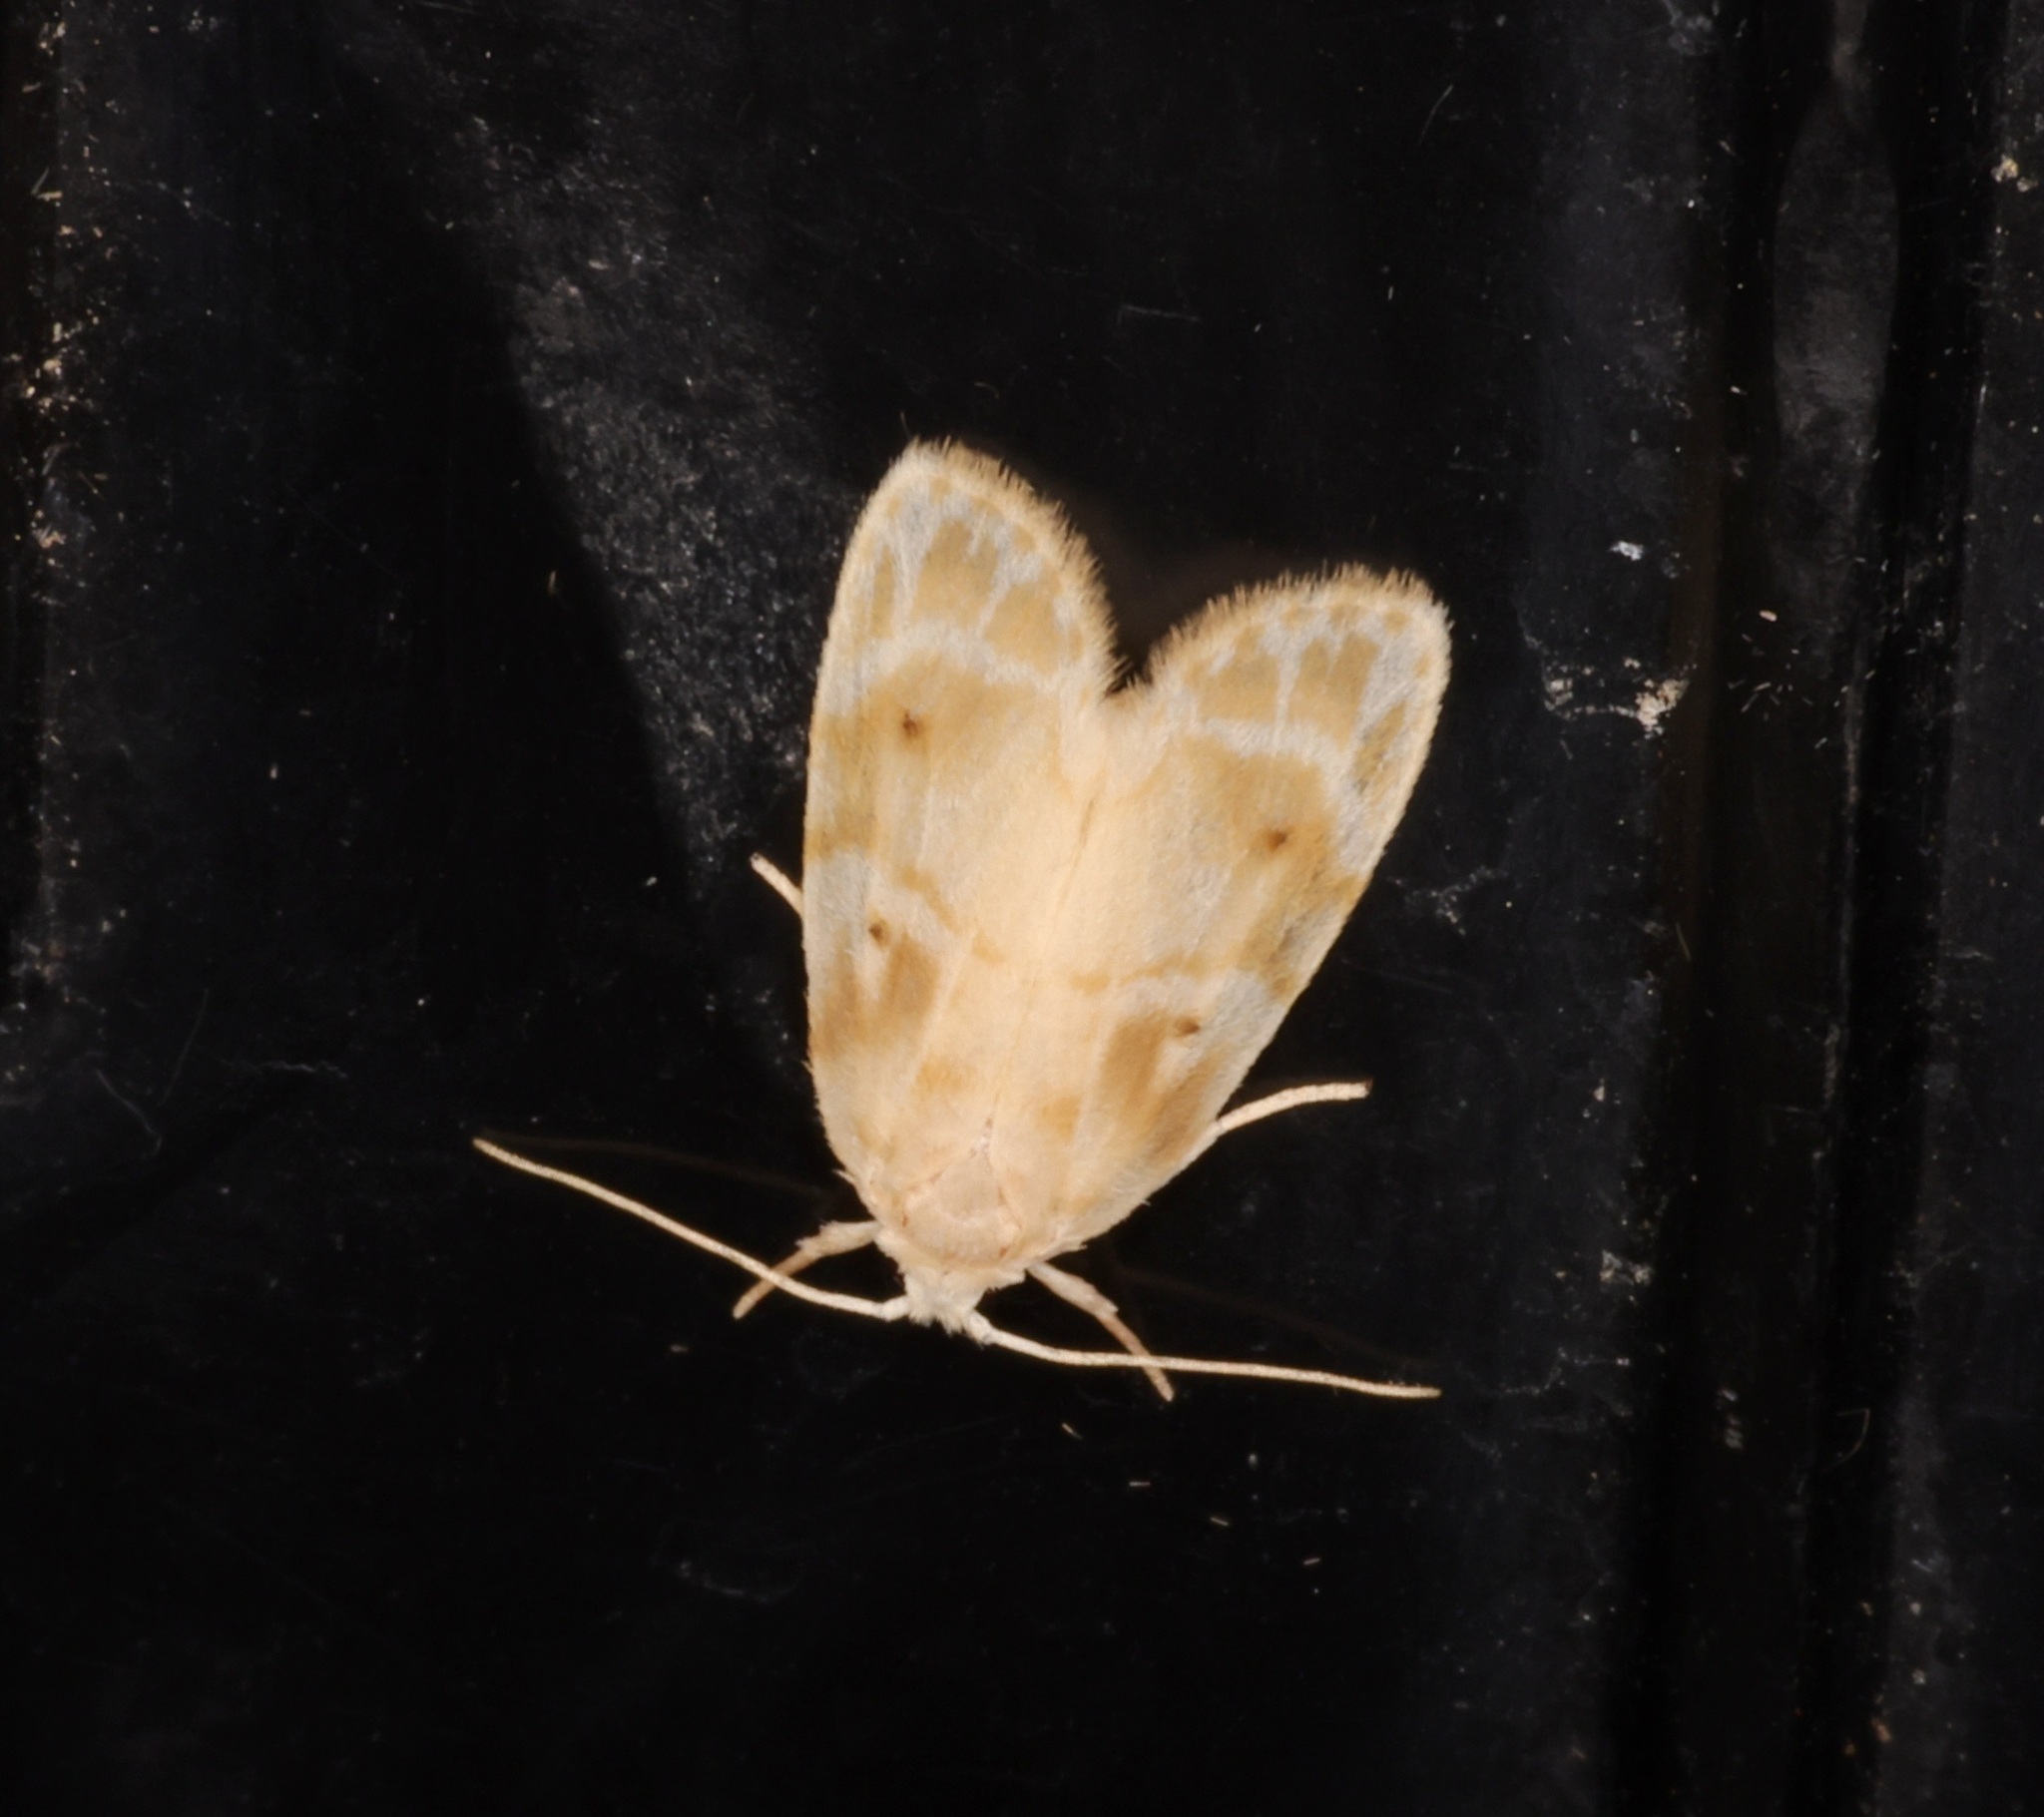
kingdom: Animalia
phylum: Arthropoda
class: Insecta
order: Lepidoptera
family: Erebidae
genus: Schistophleps
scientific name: Schistophleps bipuncta
